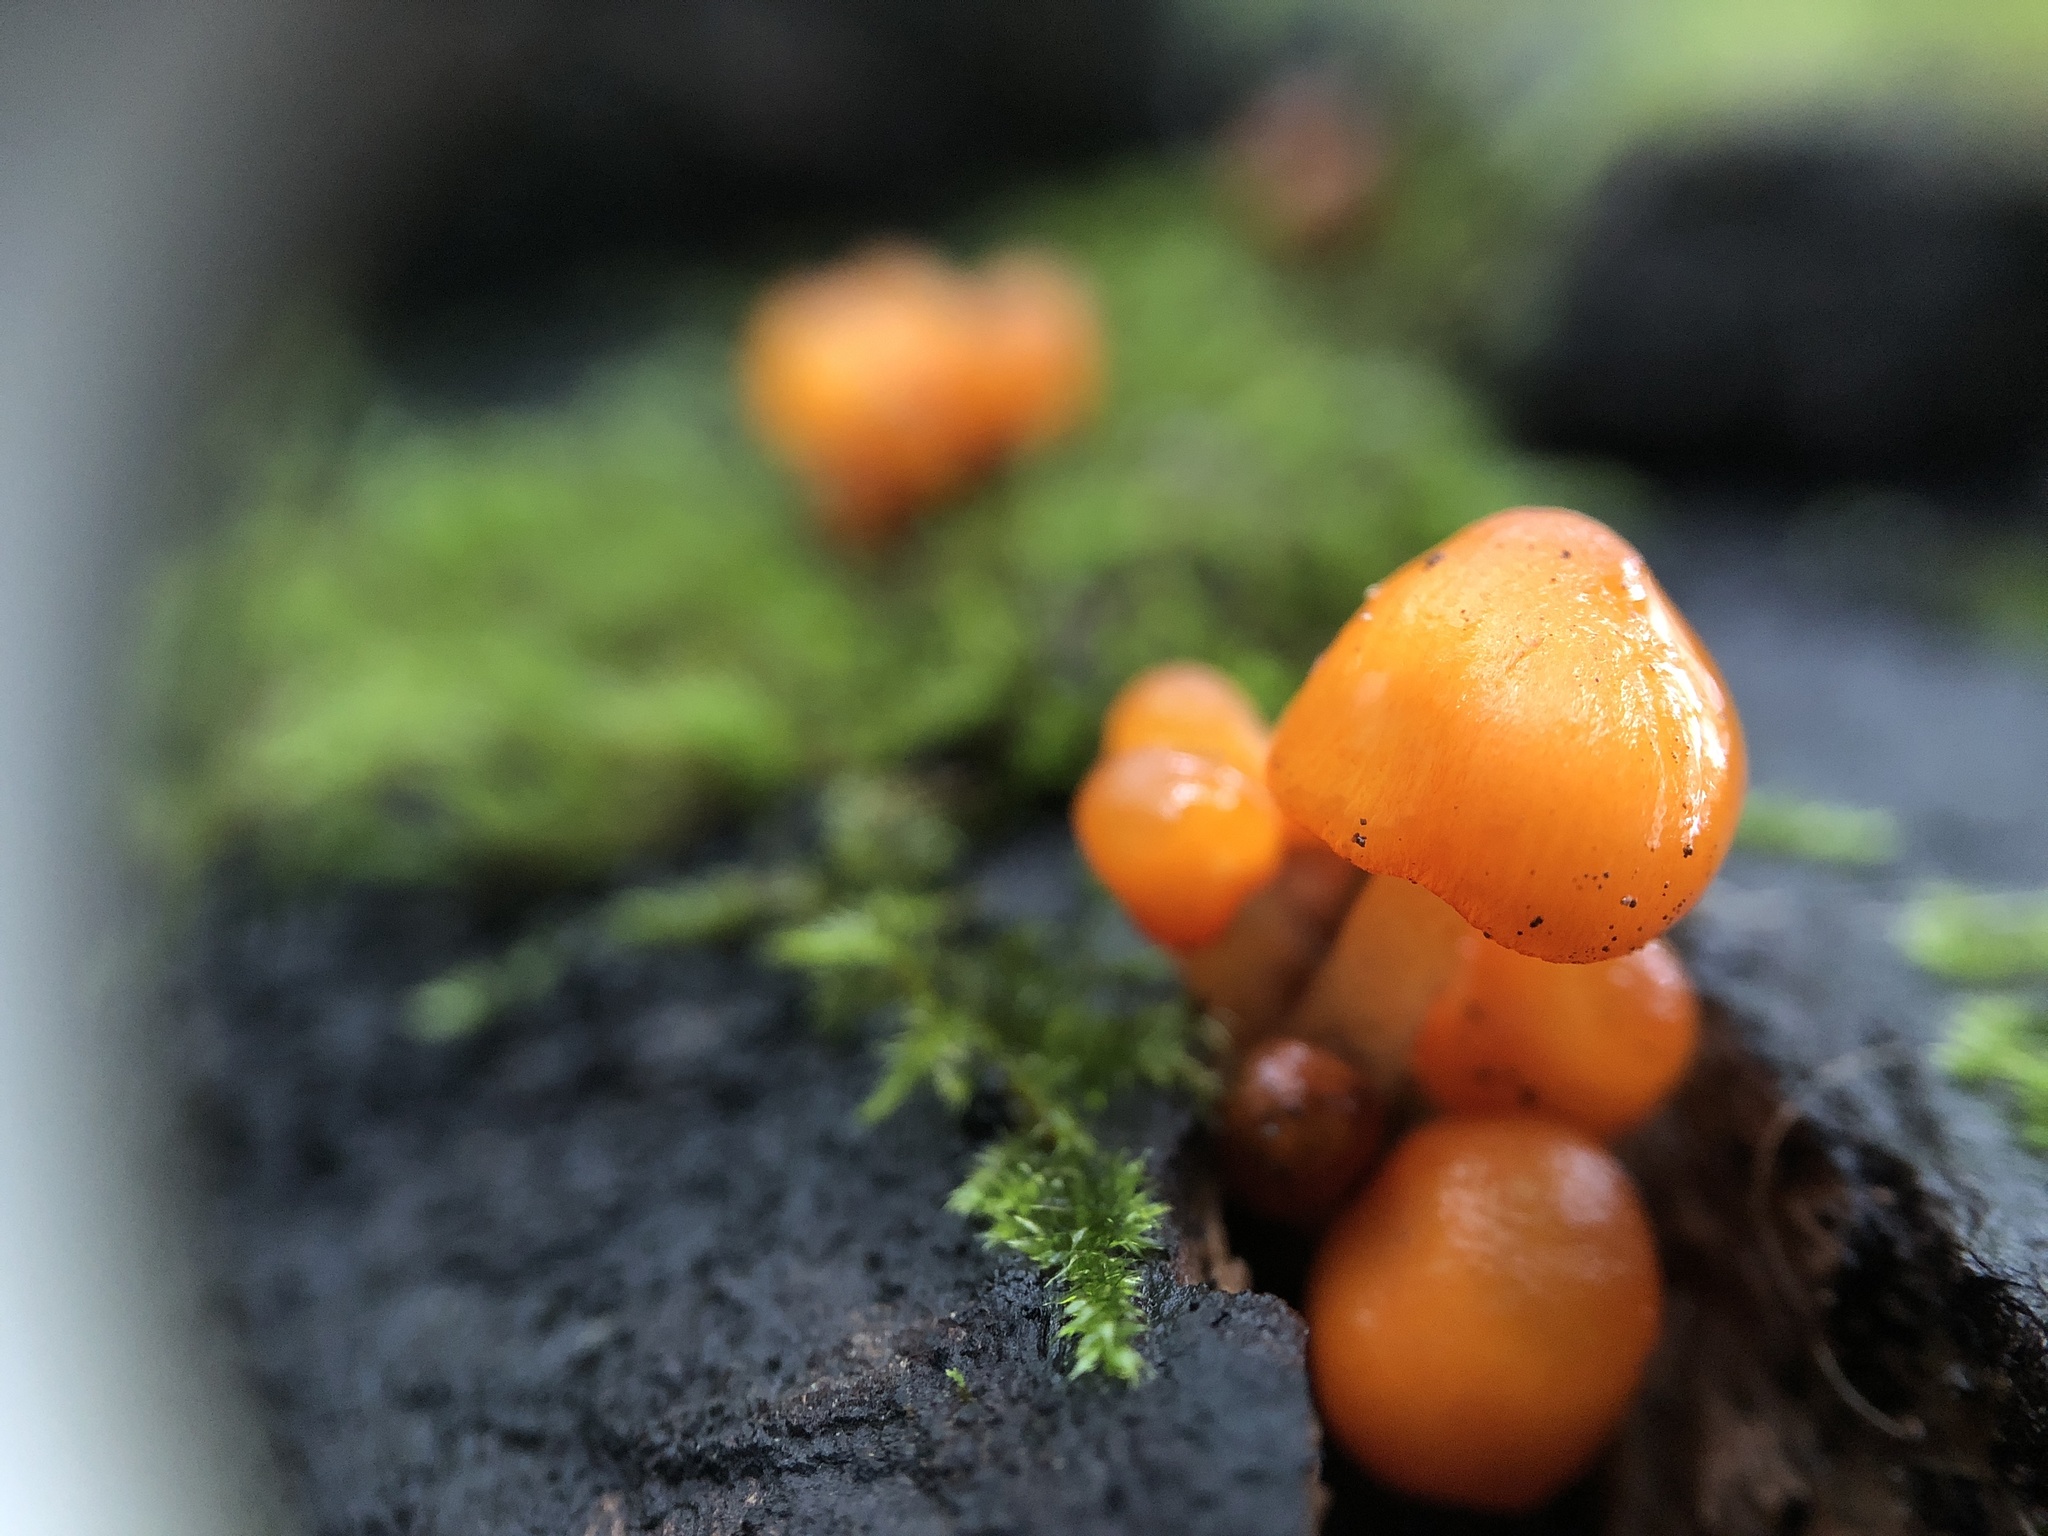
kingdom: Fungi
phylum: Basidiomycota
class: Agaricomycetes
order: Agaricales
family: Mycenaceae
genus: Mycena
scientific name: Mycena leaiana
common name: Orange mycena
